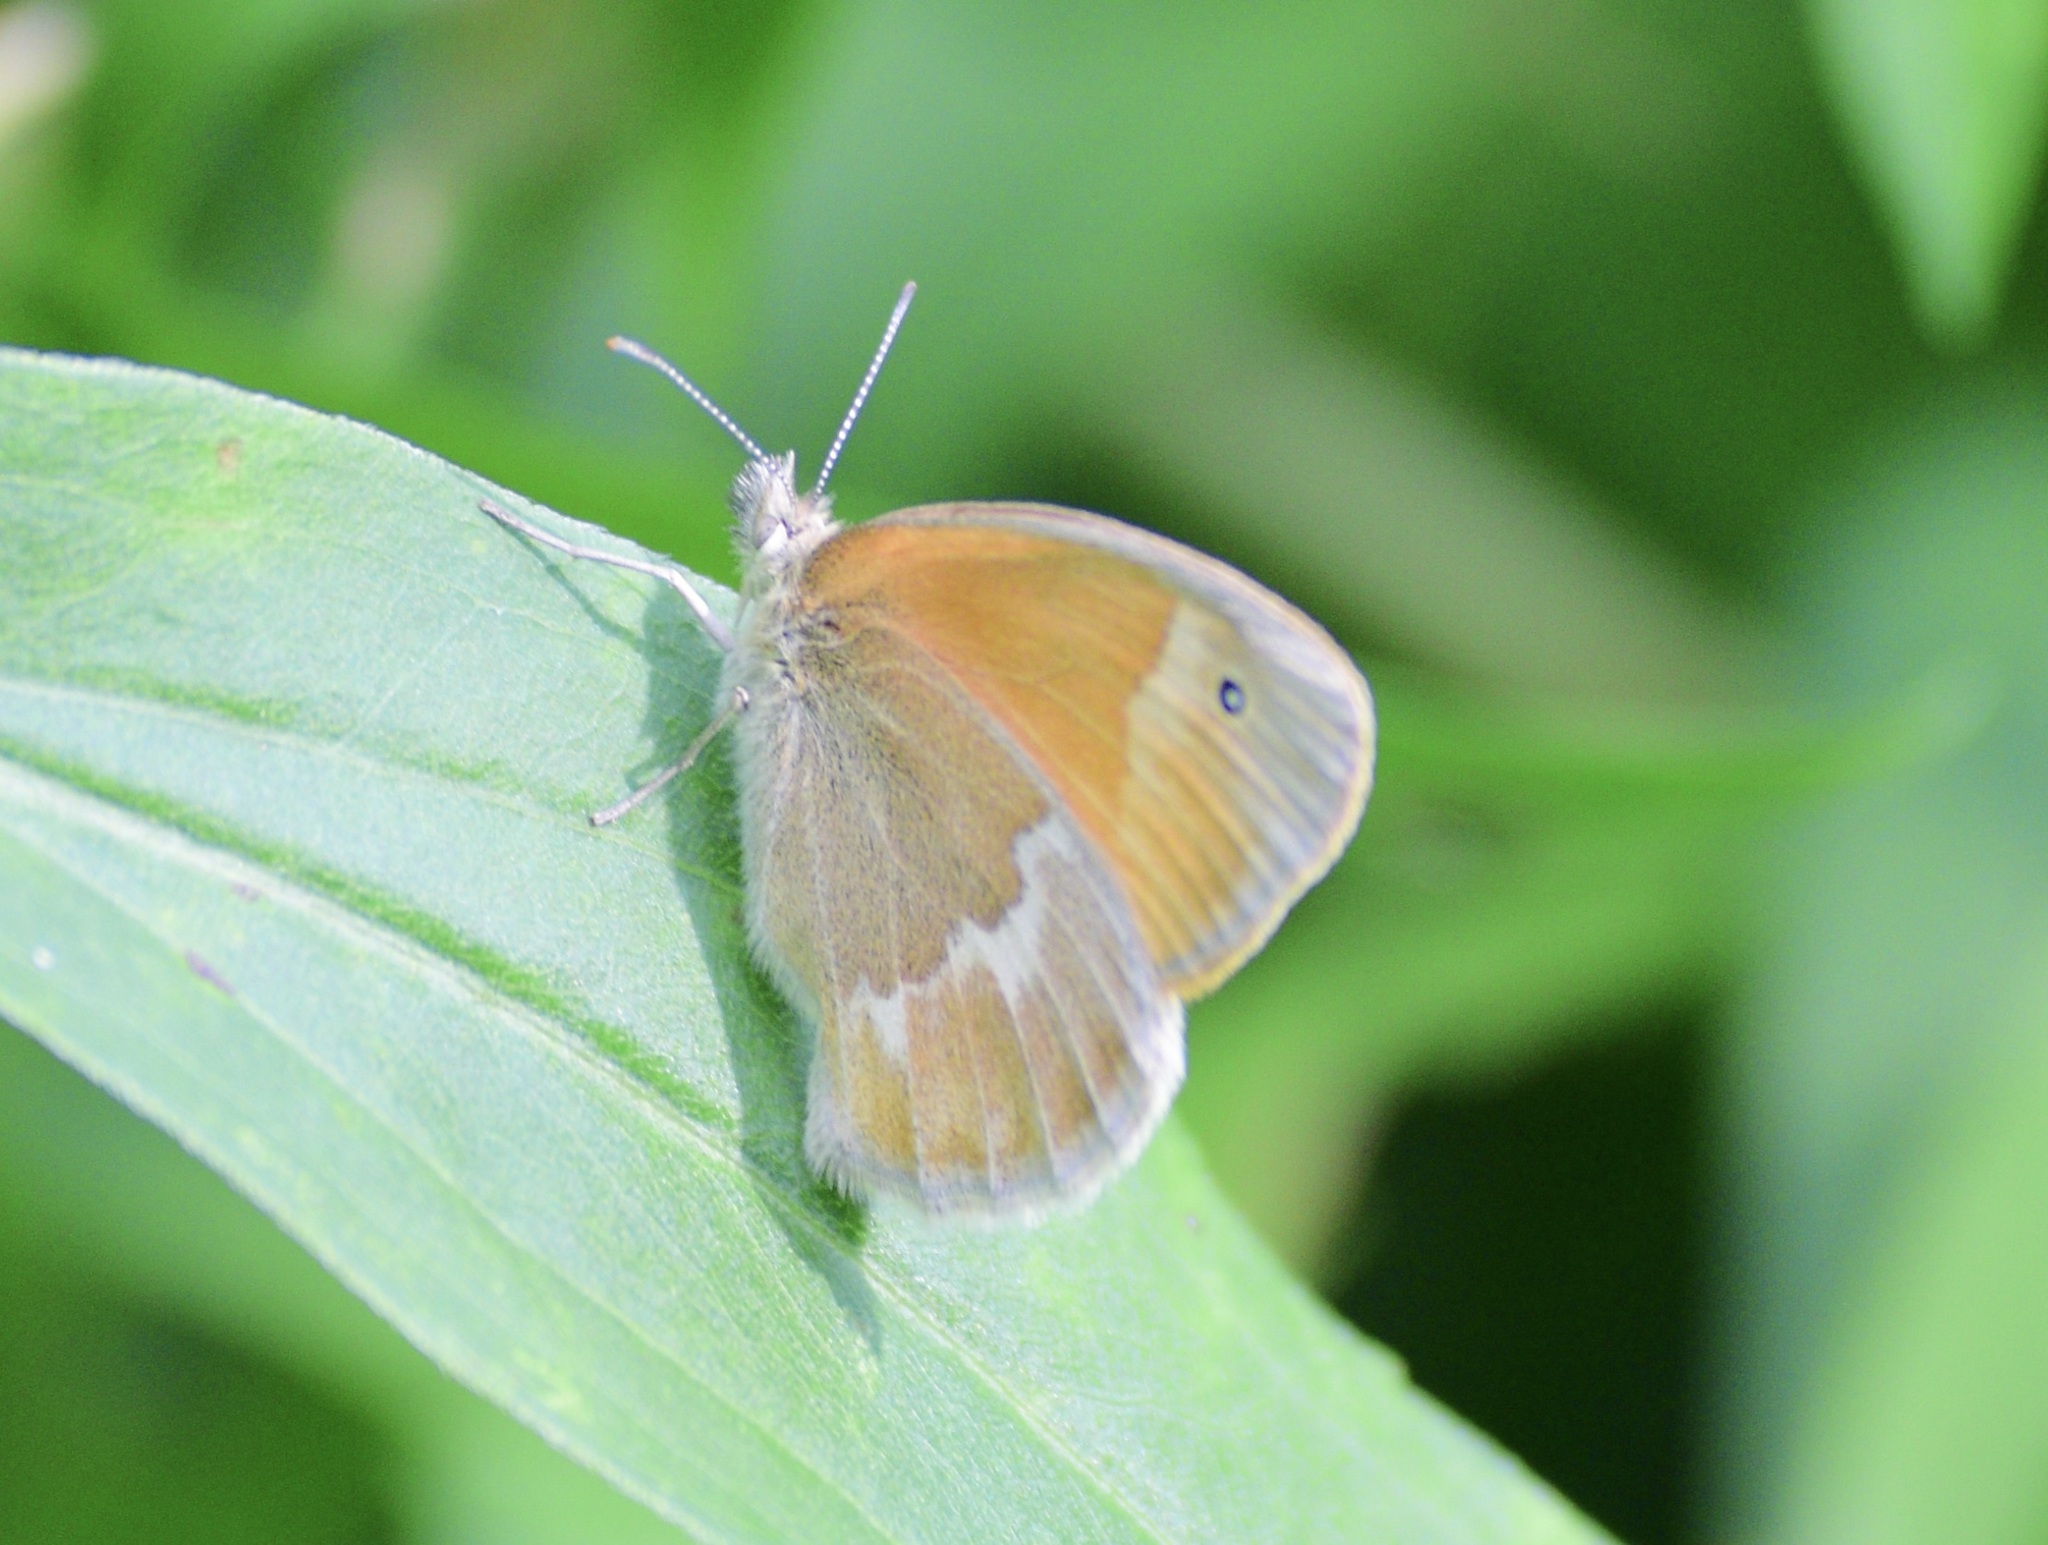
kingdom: Animalia
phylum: Arthropoda
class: Insecta
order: Lepidoptera
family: Nymphalidae
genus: Coenonympha
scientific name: Coenonympha california
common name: Common ringlet
